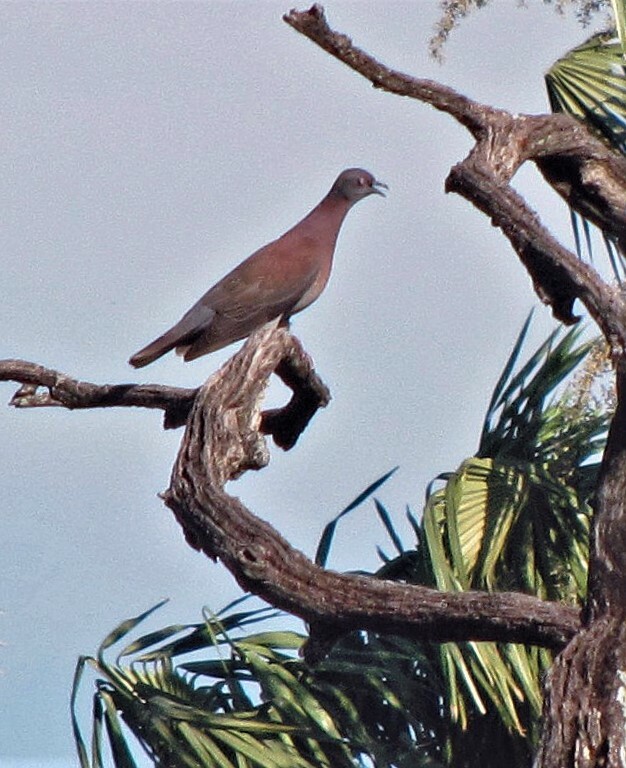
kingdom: Animalia
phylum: Chordata
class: Aves
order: Columbiformes
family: Columbidae
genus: Patagioenas
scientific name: Patagioenas cayennensis
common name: Pale-vented pigeon
